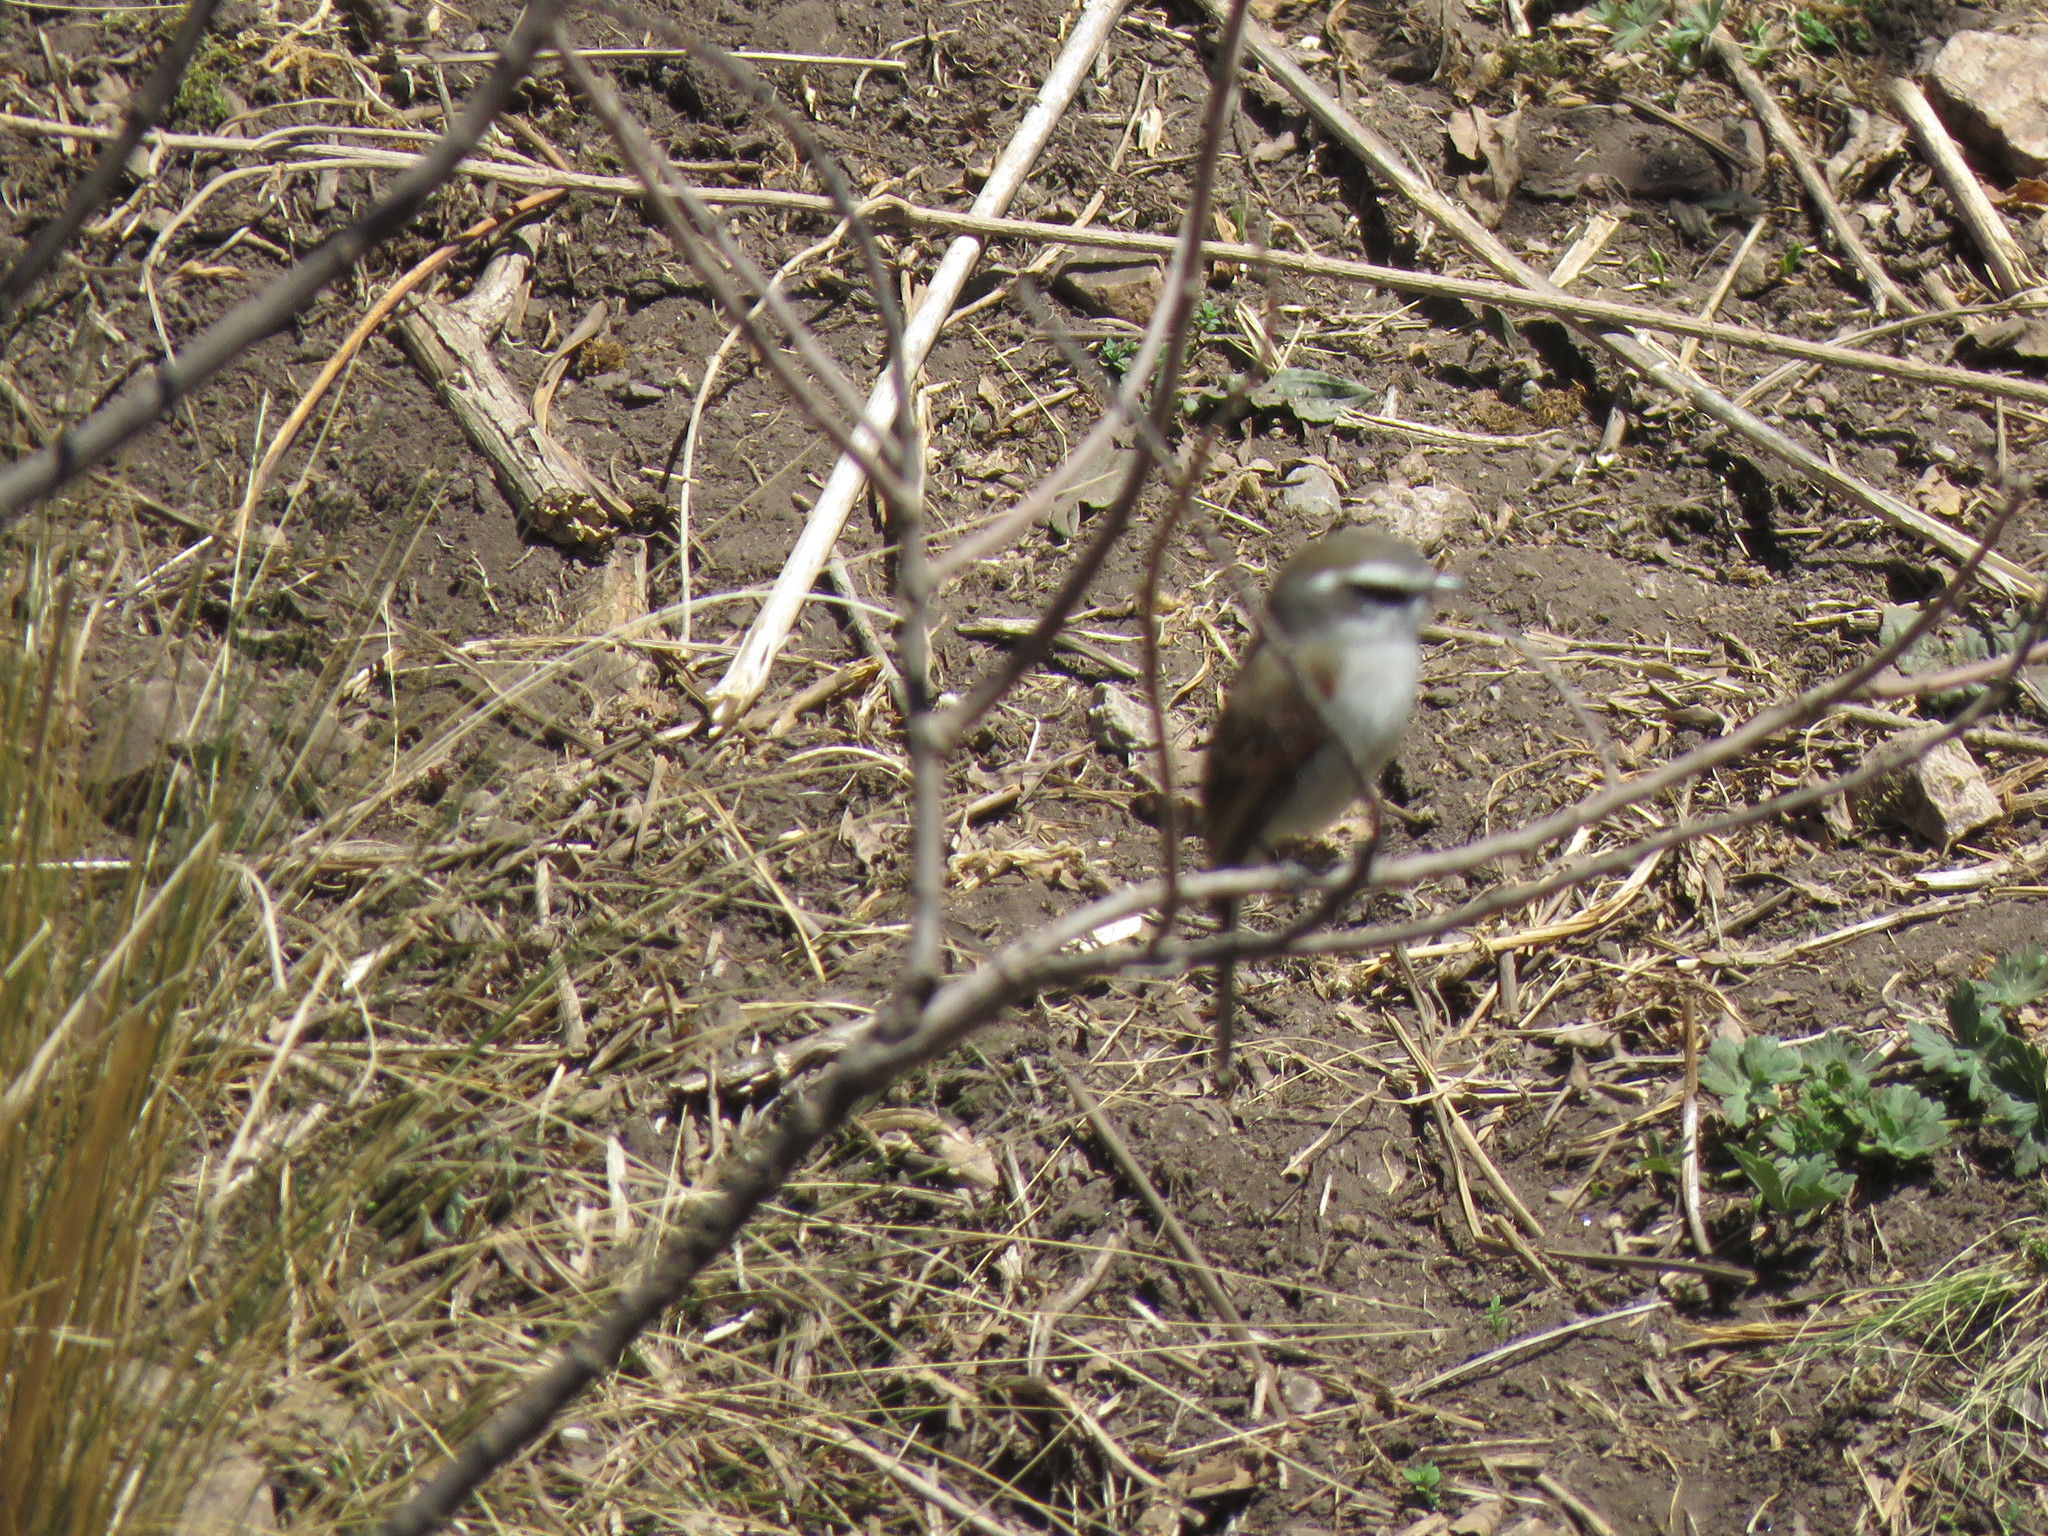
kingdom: Animalia
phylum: Chordata
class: Aves
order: Passeriformes
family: Tyrannidae
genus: Ochthoeca
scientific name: Ochthoeca leucophrys
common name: White-browed chat-tyrant
